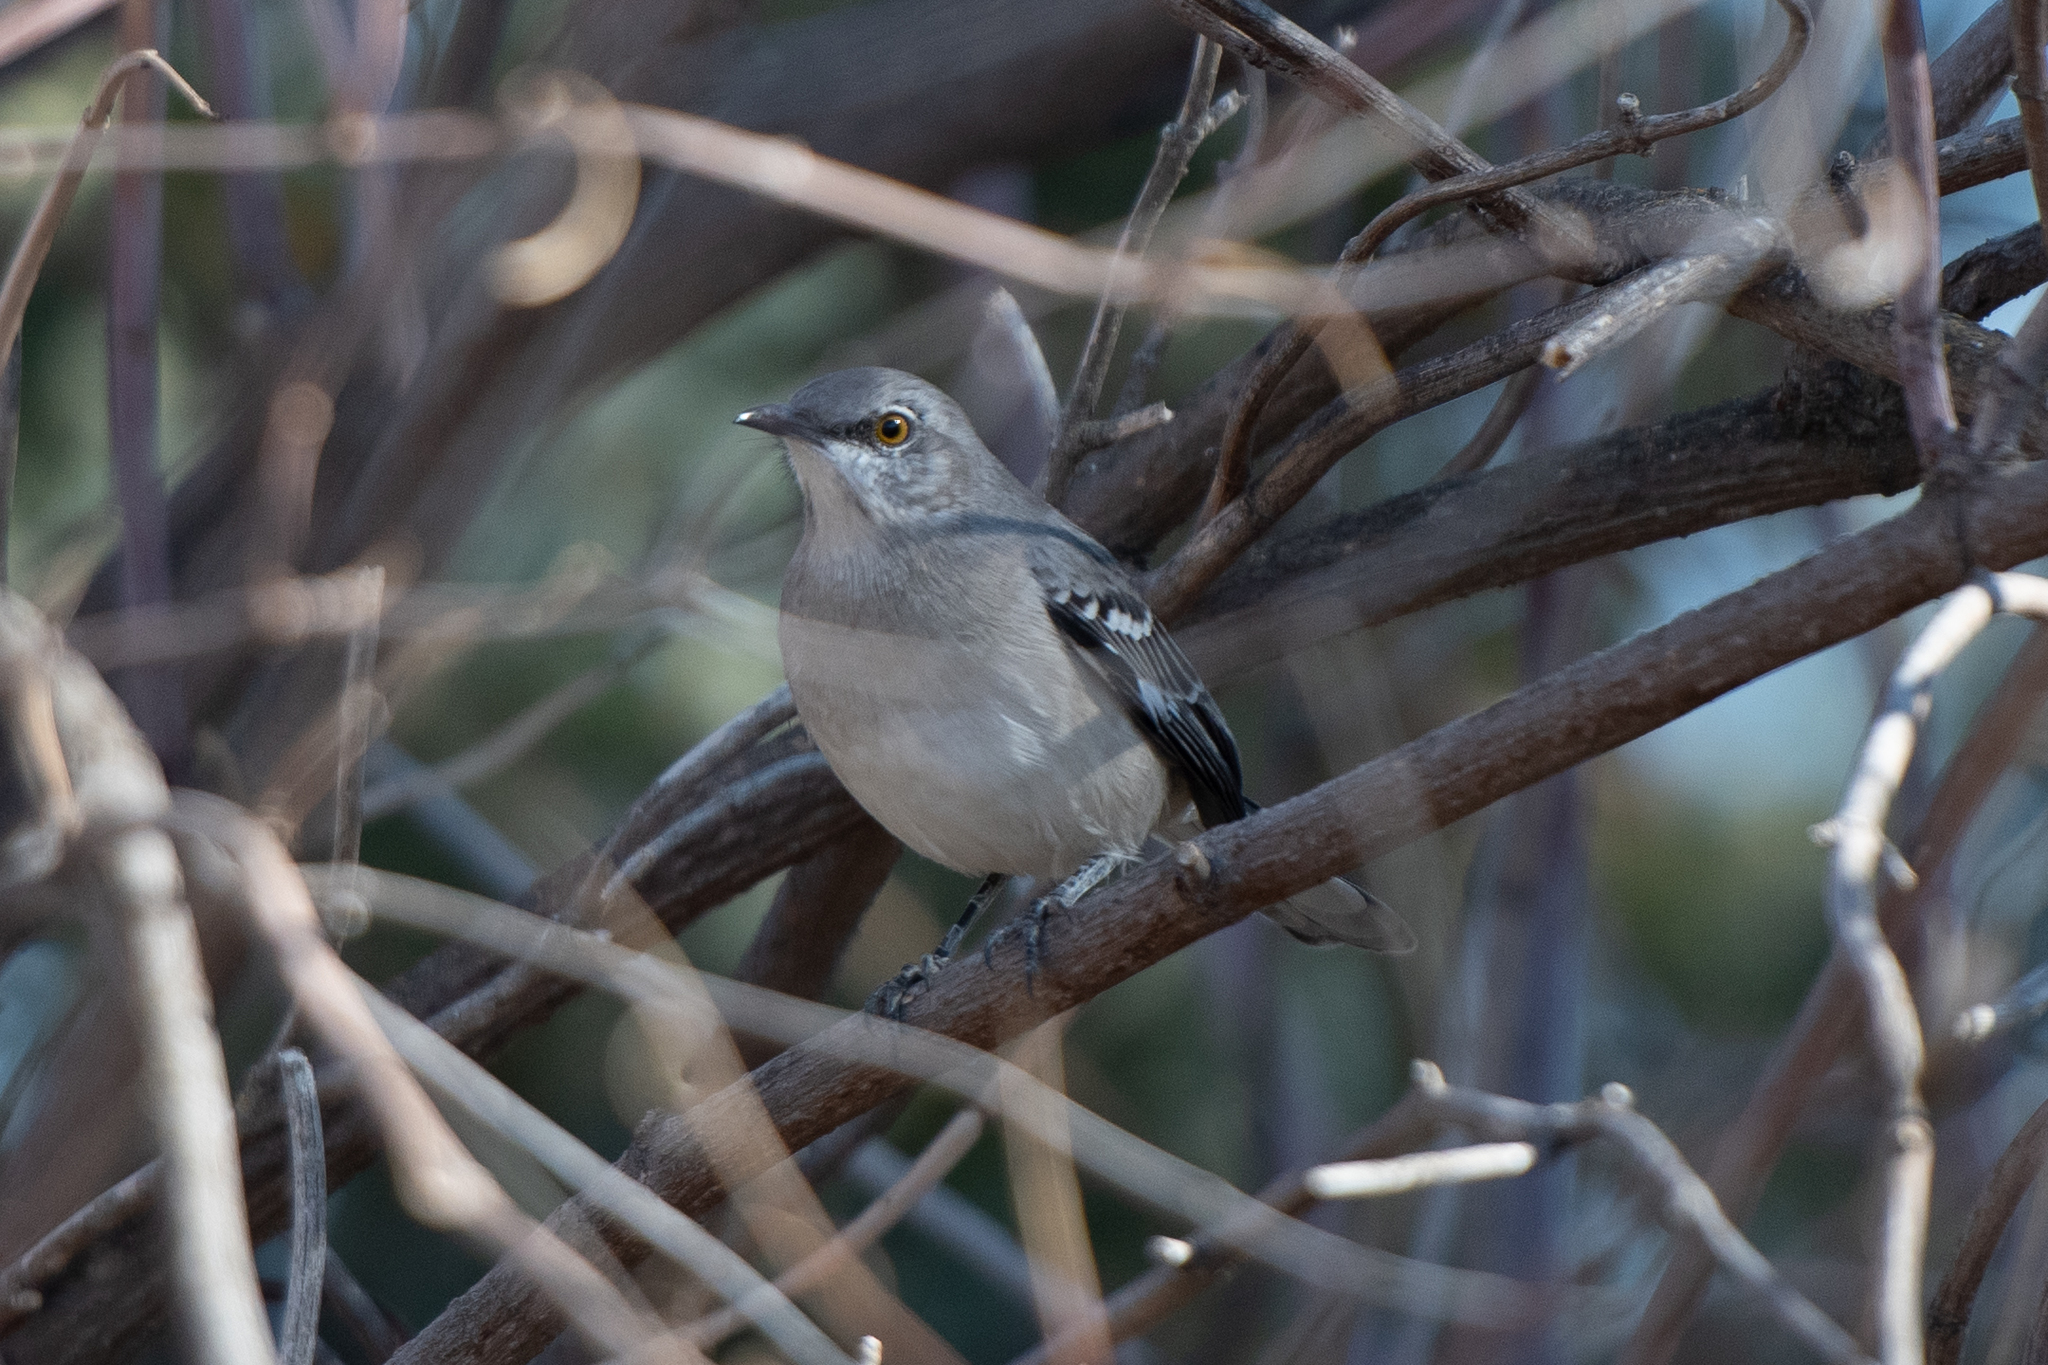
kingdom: Animalia
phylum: Chordata
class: Aves
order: Passeriformes
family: Mimidae
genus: Mimus
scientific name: Mimus polyglottos
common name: Northern mockingbird
